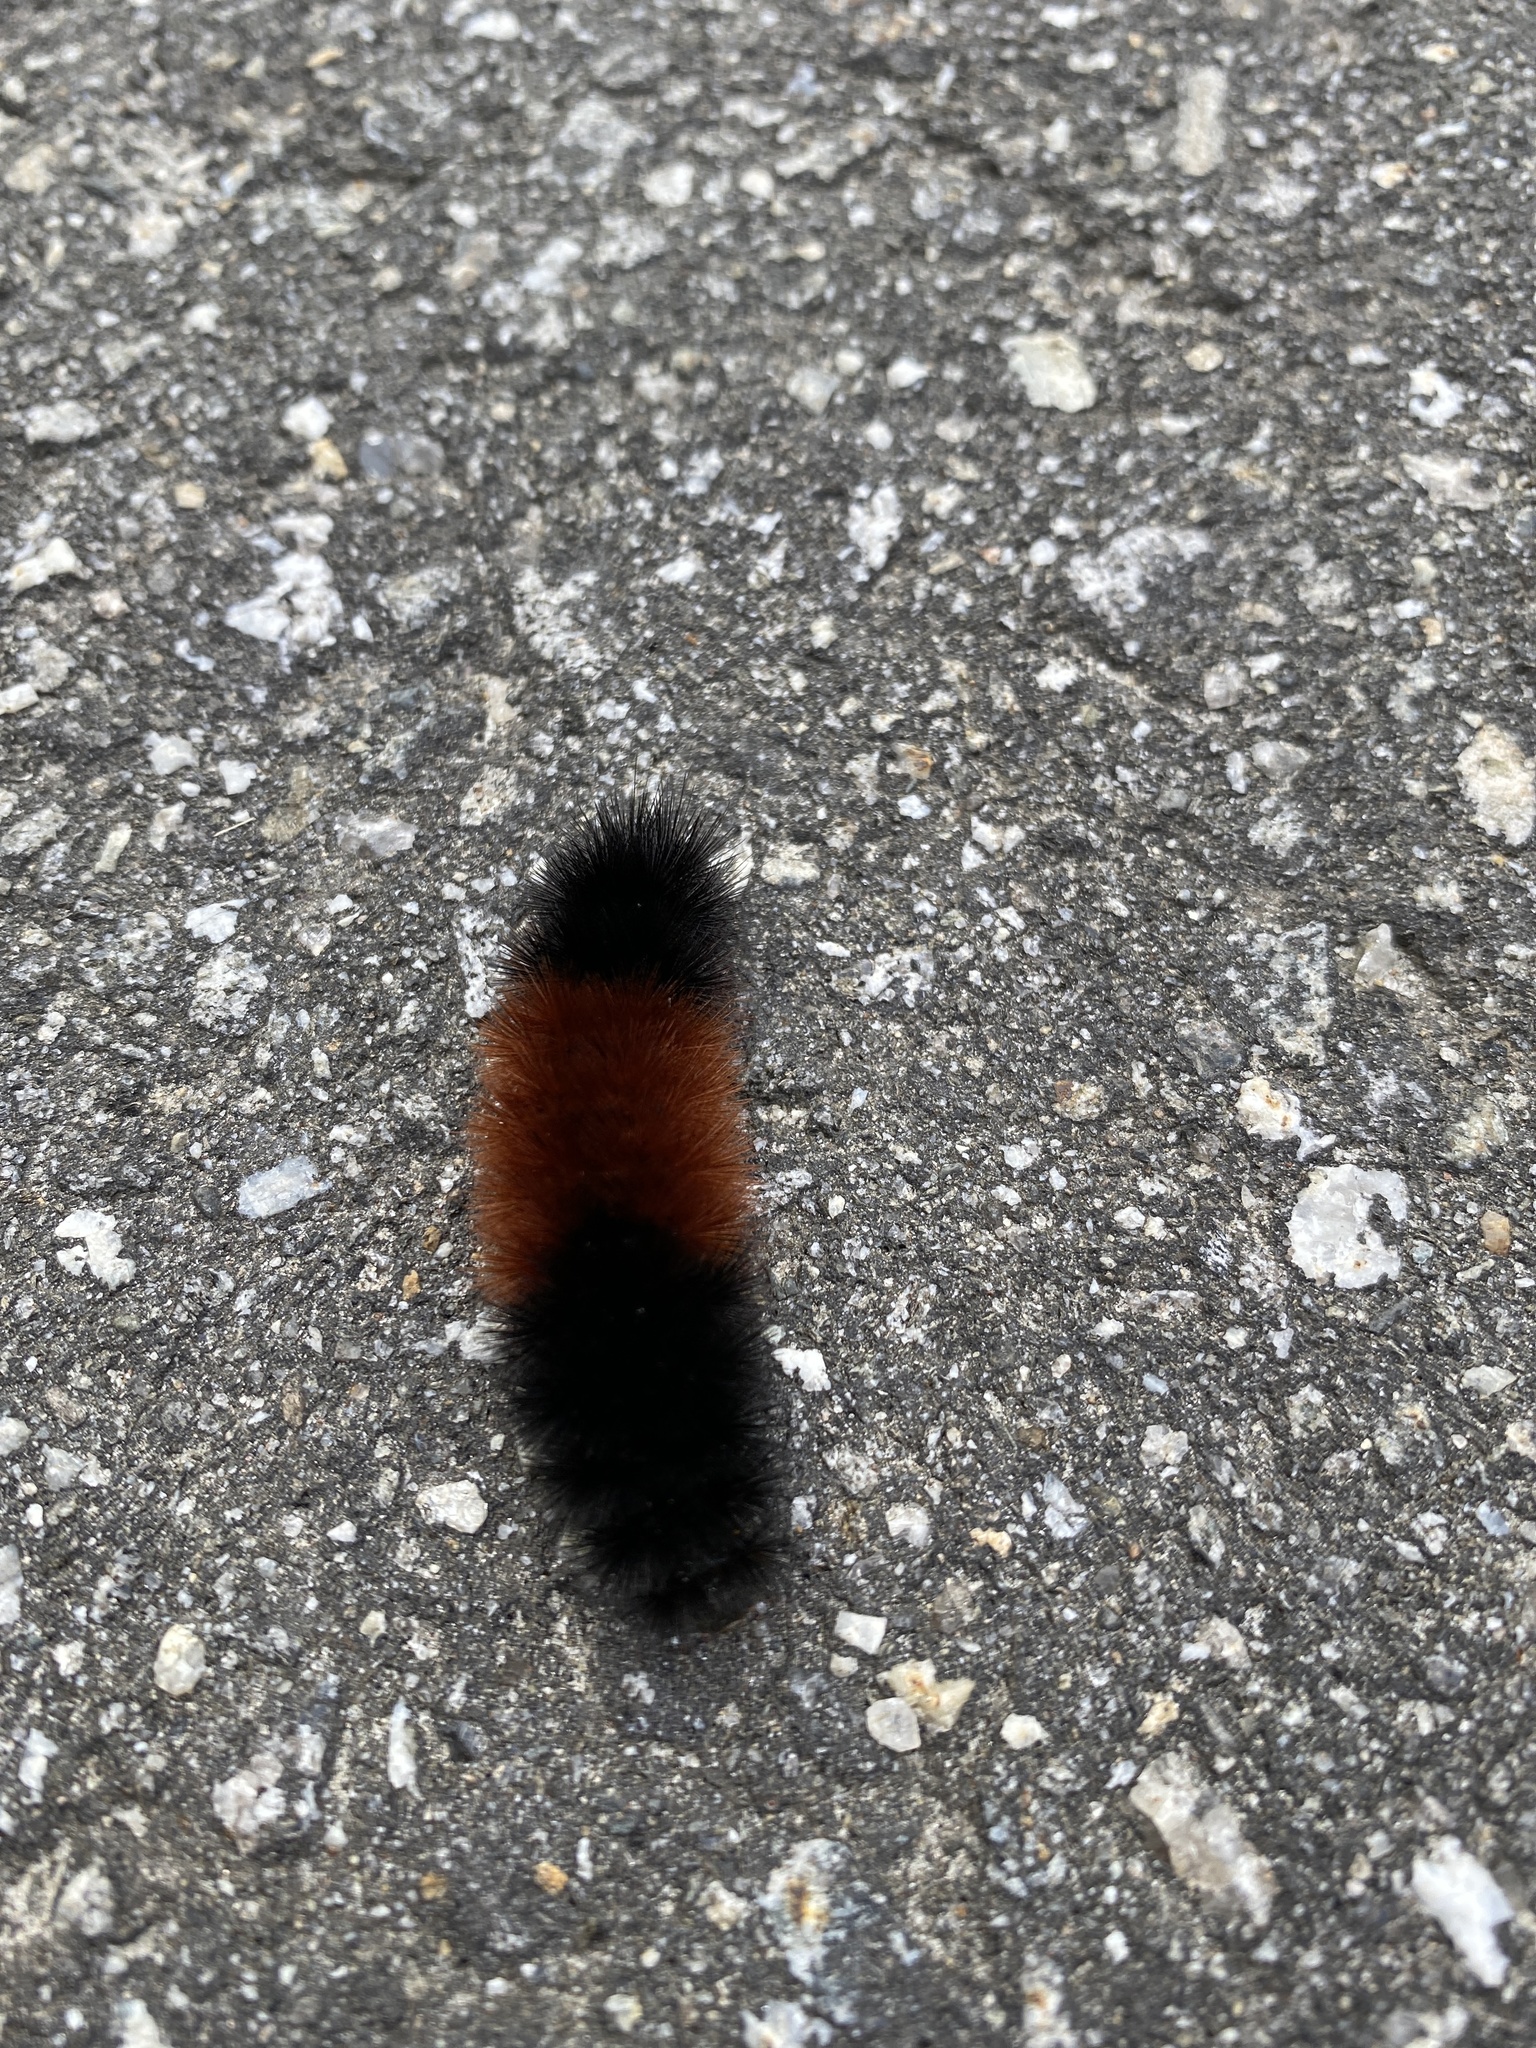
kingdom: Animalia
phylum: Arthropoda
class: Insecta
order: Lepidoptera
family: Erebidae
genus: Pyrrharctia
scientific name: Pyrrharctia isabella
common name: Isabella tiger moth
